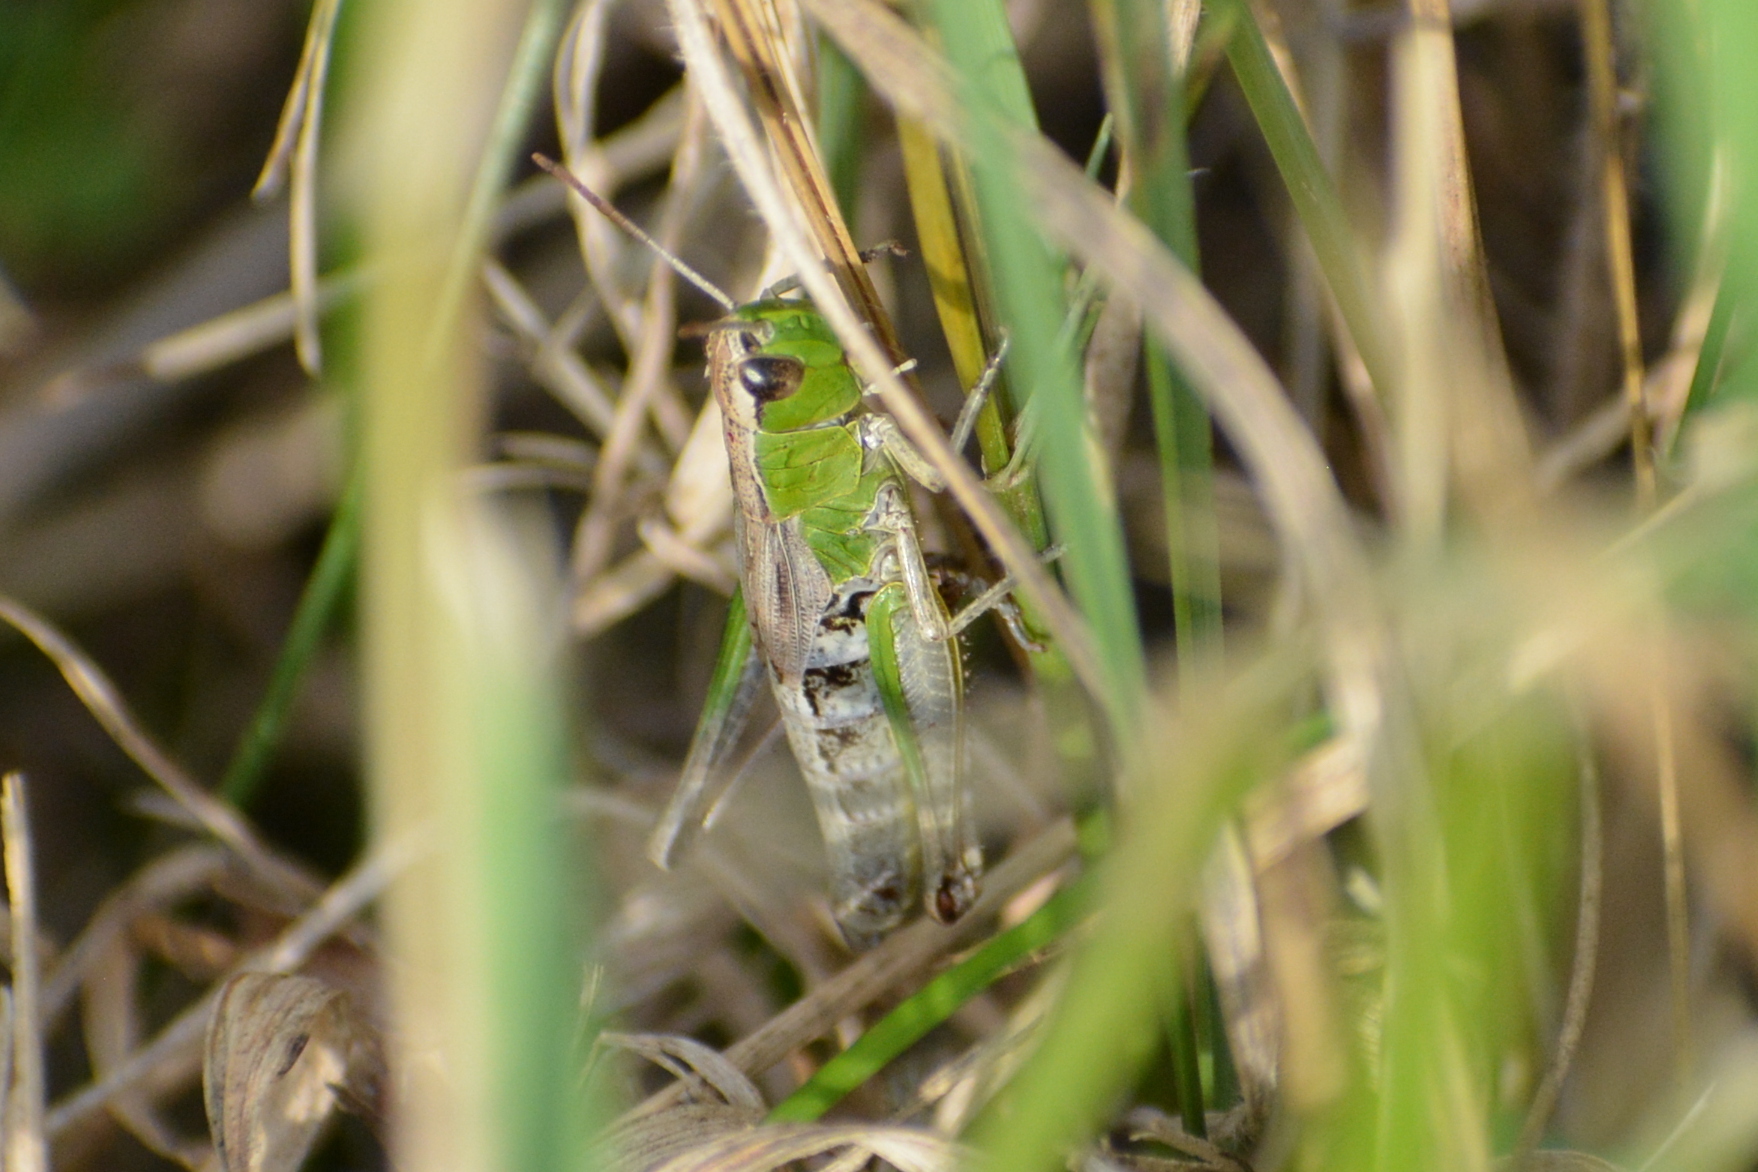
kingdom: Animalia
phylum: Arthropoda
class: Insecta
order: Orthoptera
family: Acrididae
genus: Pseudochorthippus
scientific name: Pseudochorthippus parallelus
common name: Meadow grasshopper
